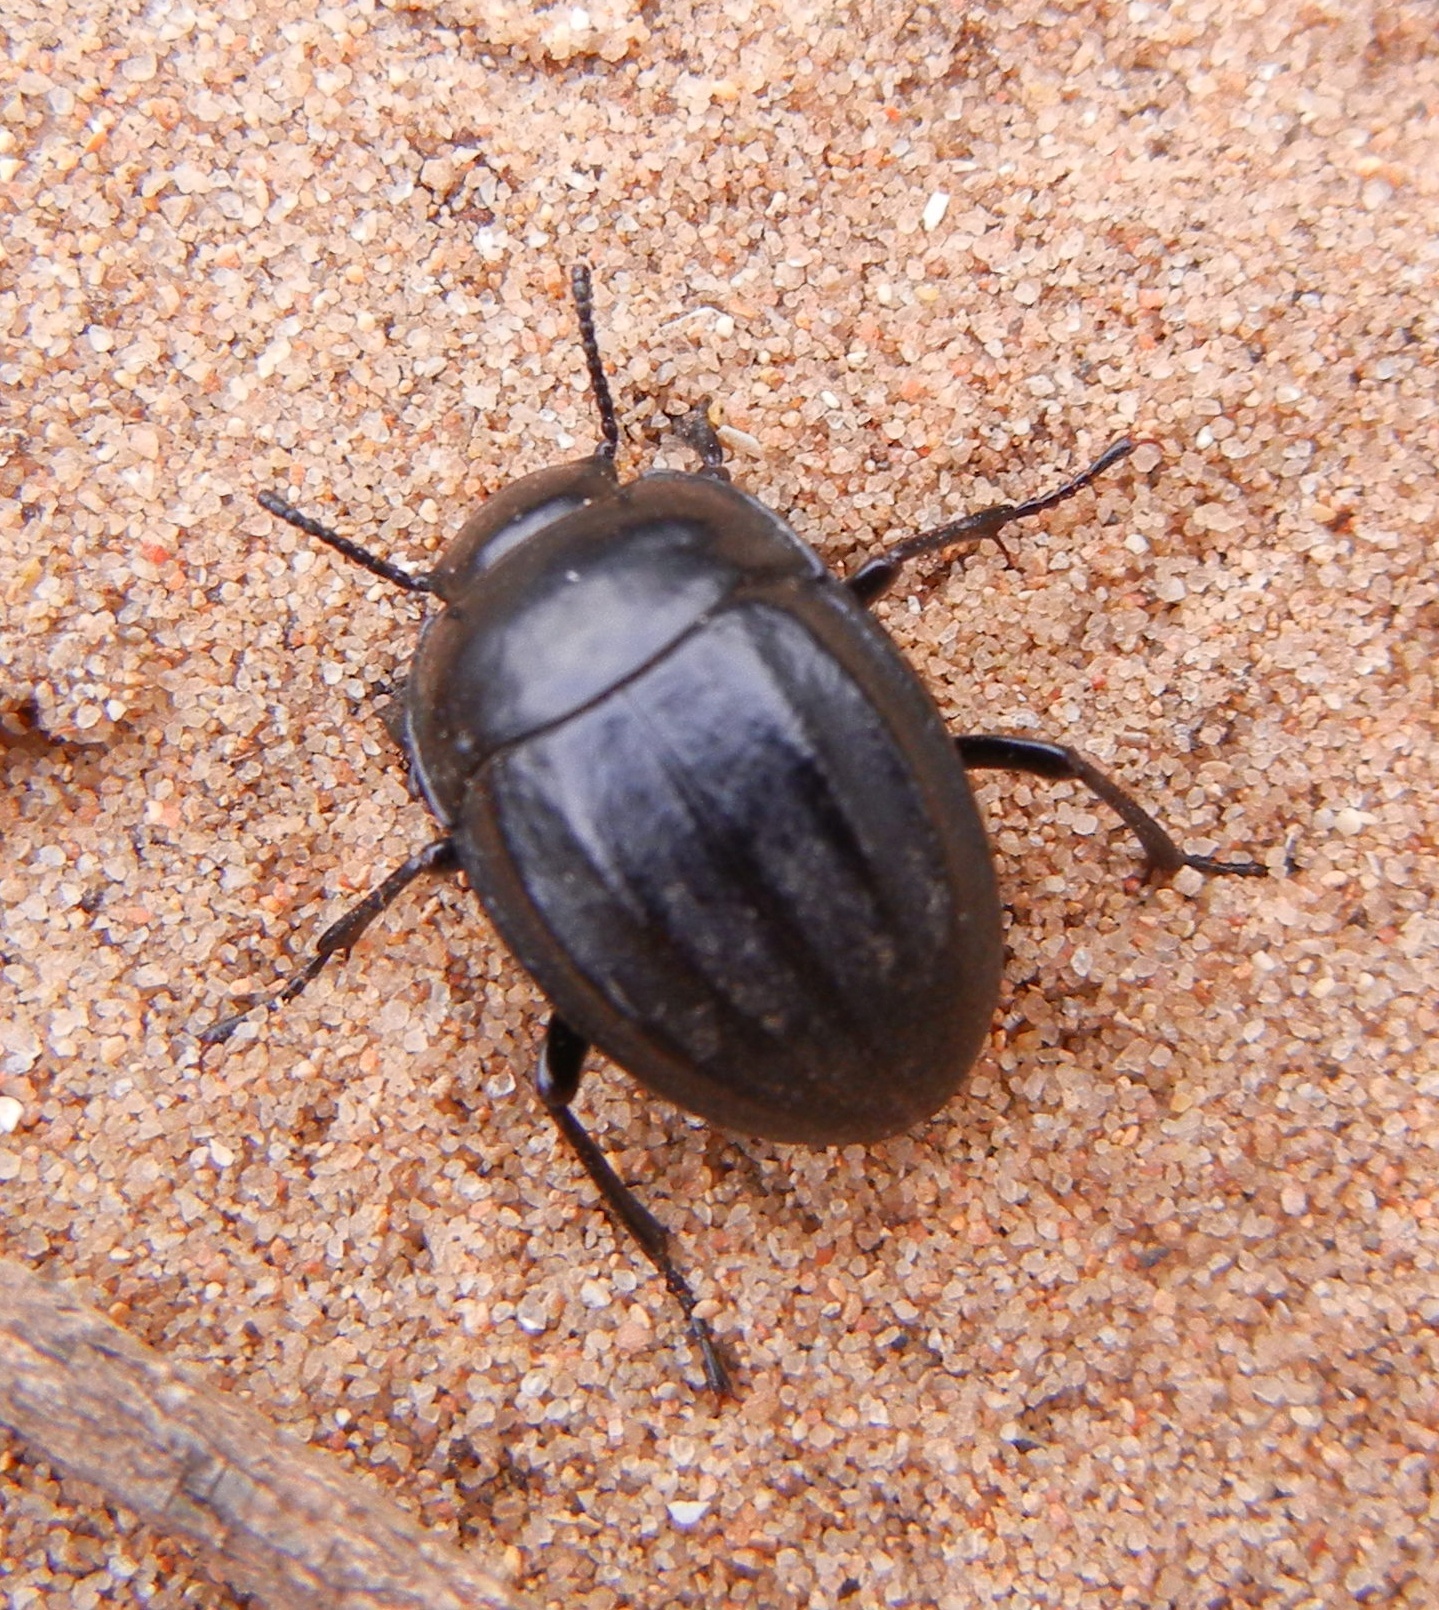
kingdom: Animalia
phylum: Arthropoda
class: Insecta
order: Coleoptera
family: Tenebrionidae
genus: Erodius
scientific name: Erodius emondi
